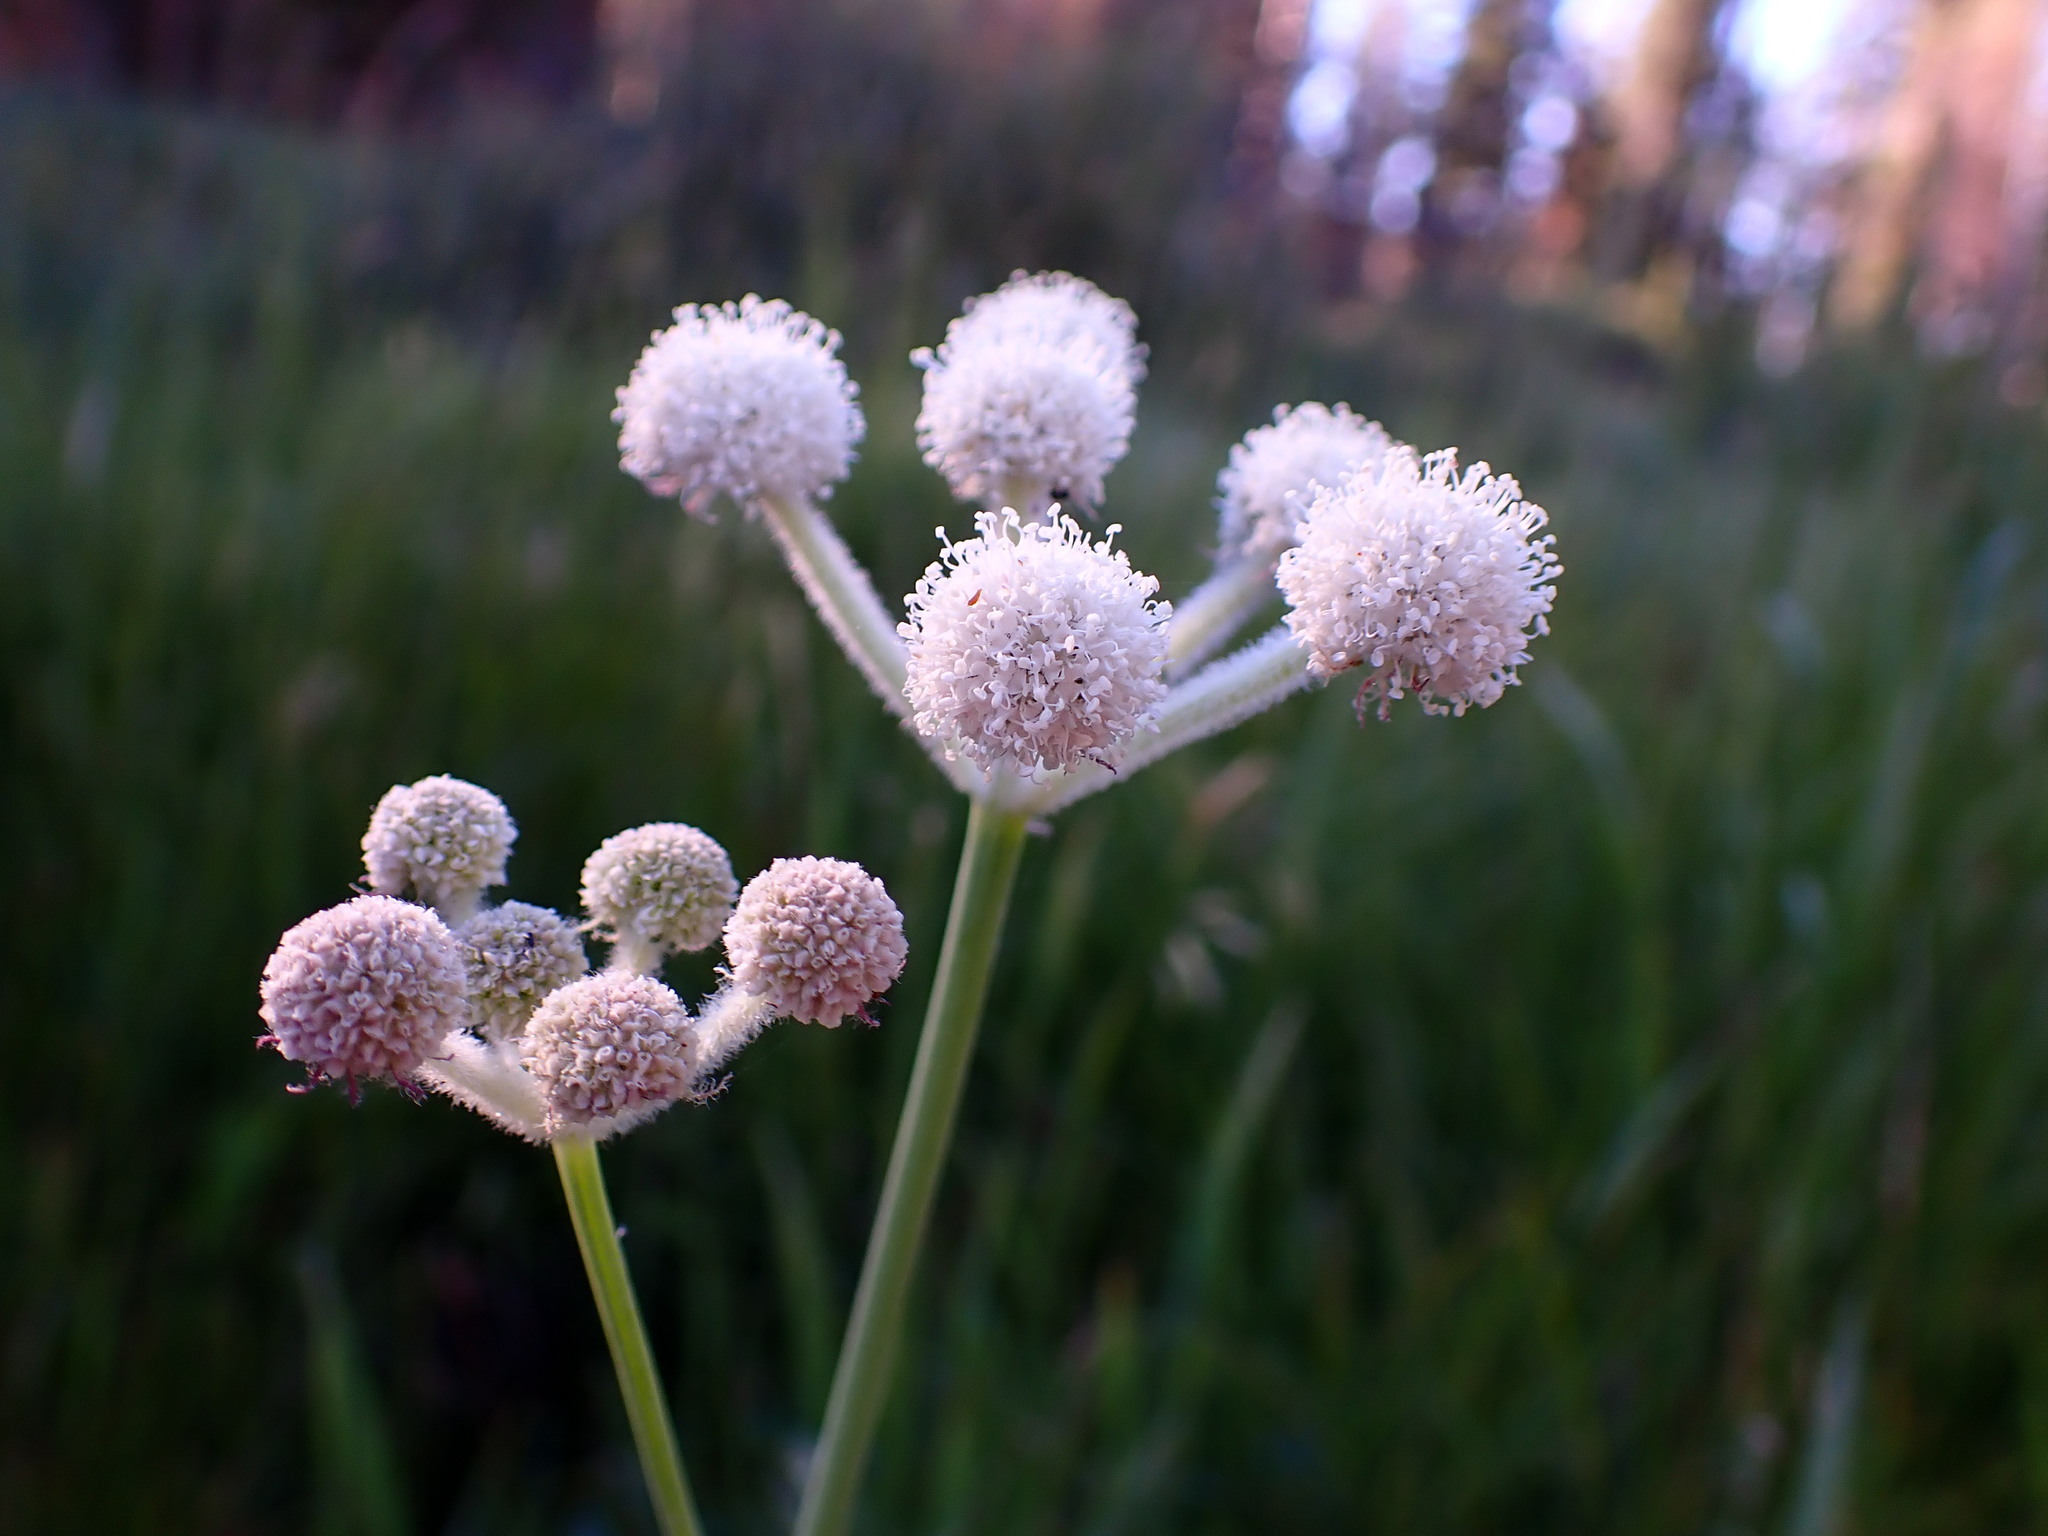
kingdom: Plantae
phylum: Tracheophyta
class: Magnoliopsida
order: Apiales
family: Apiaceae
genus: Angelica
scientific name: Angelica capitellata
